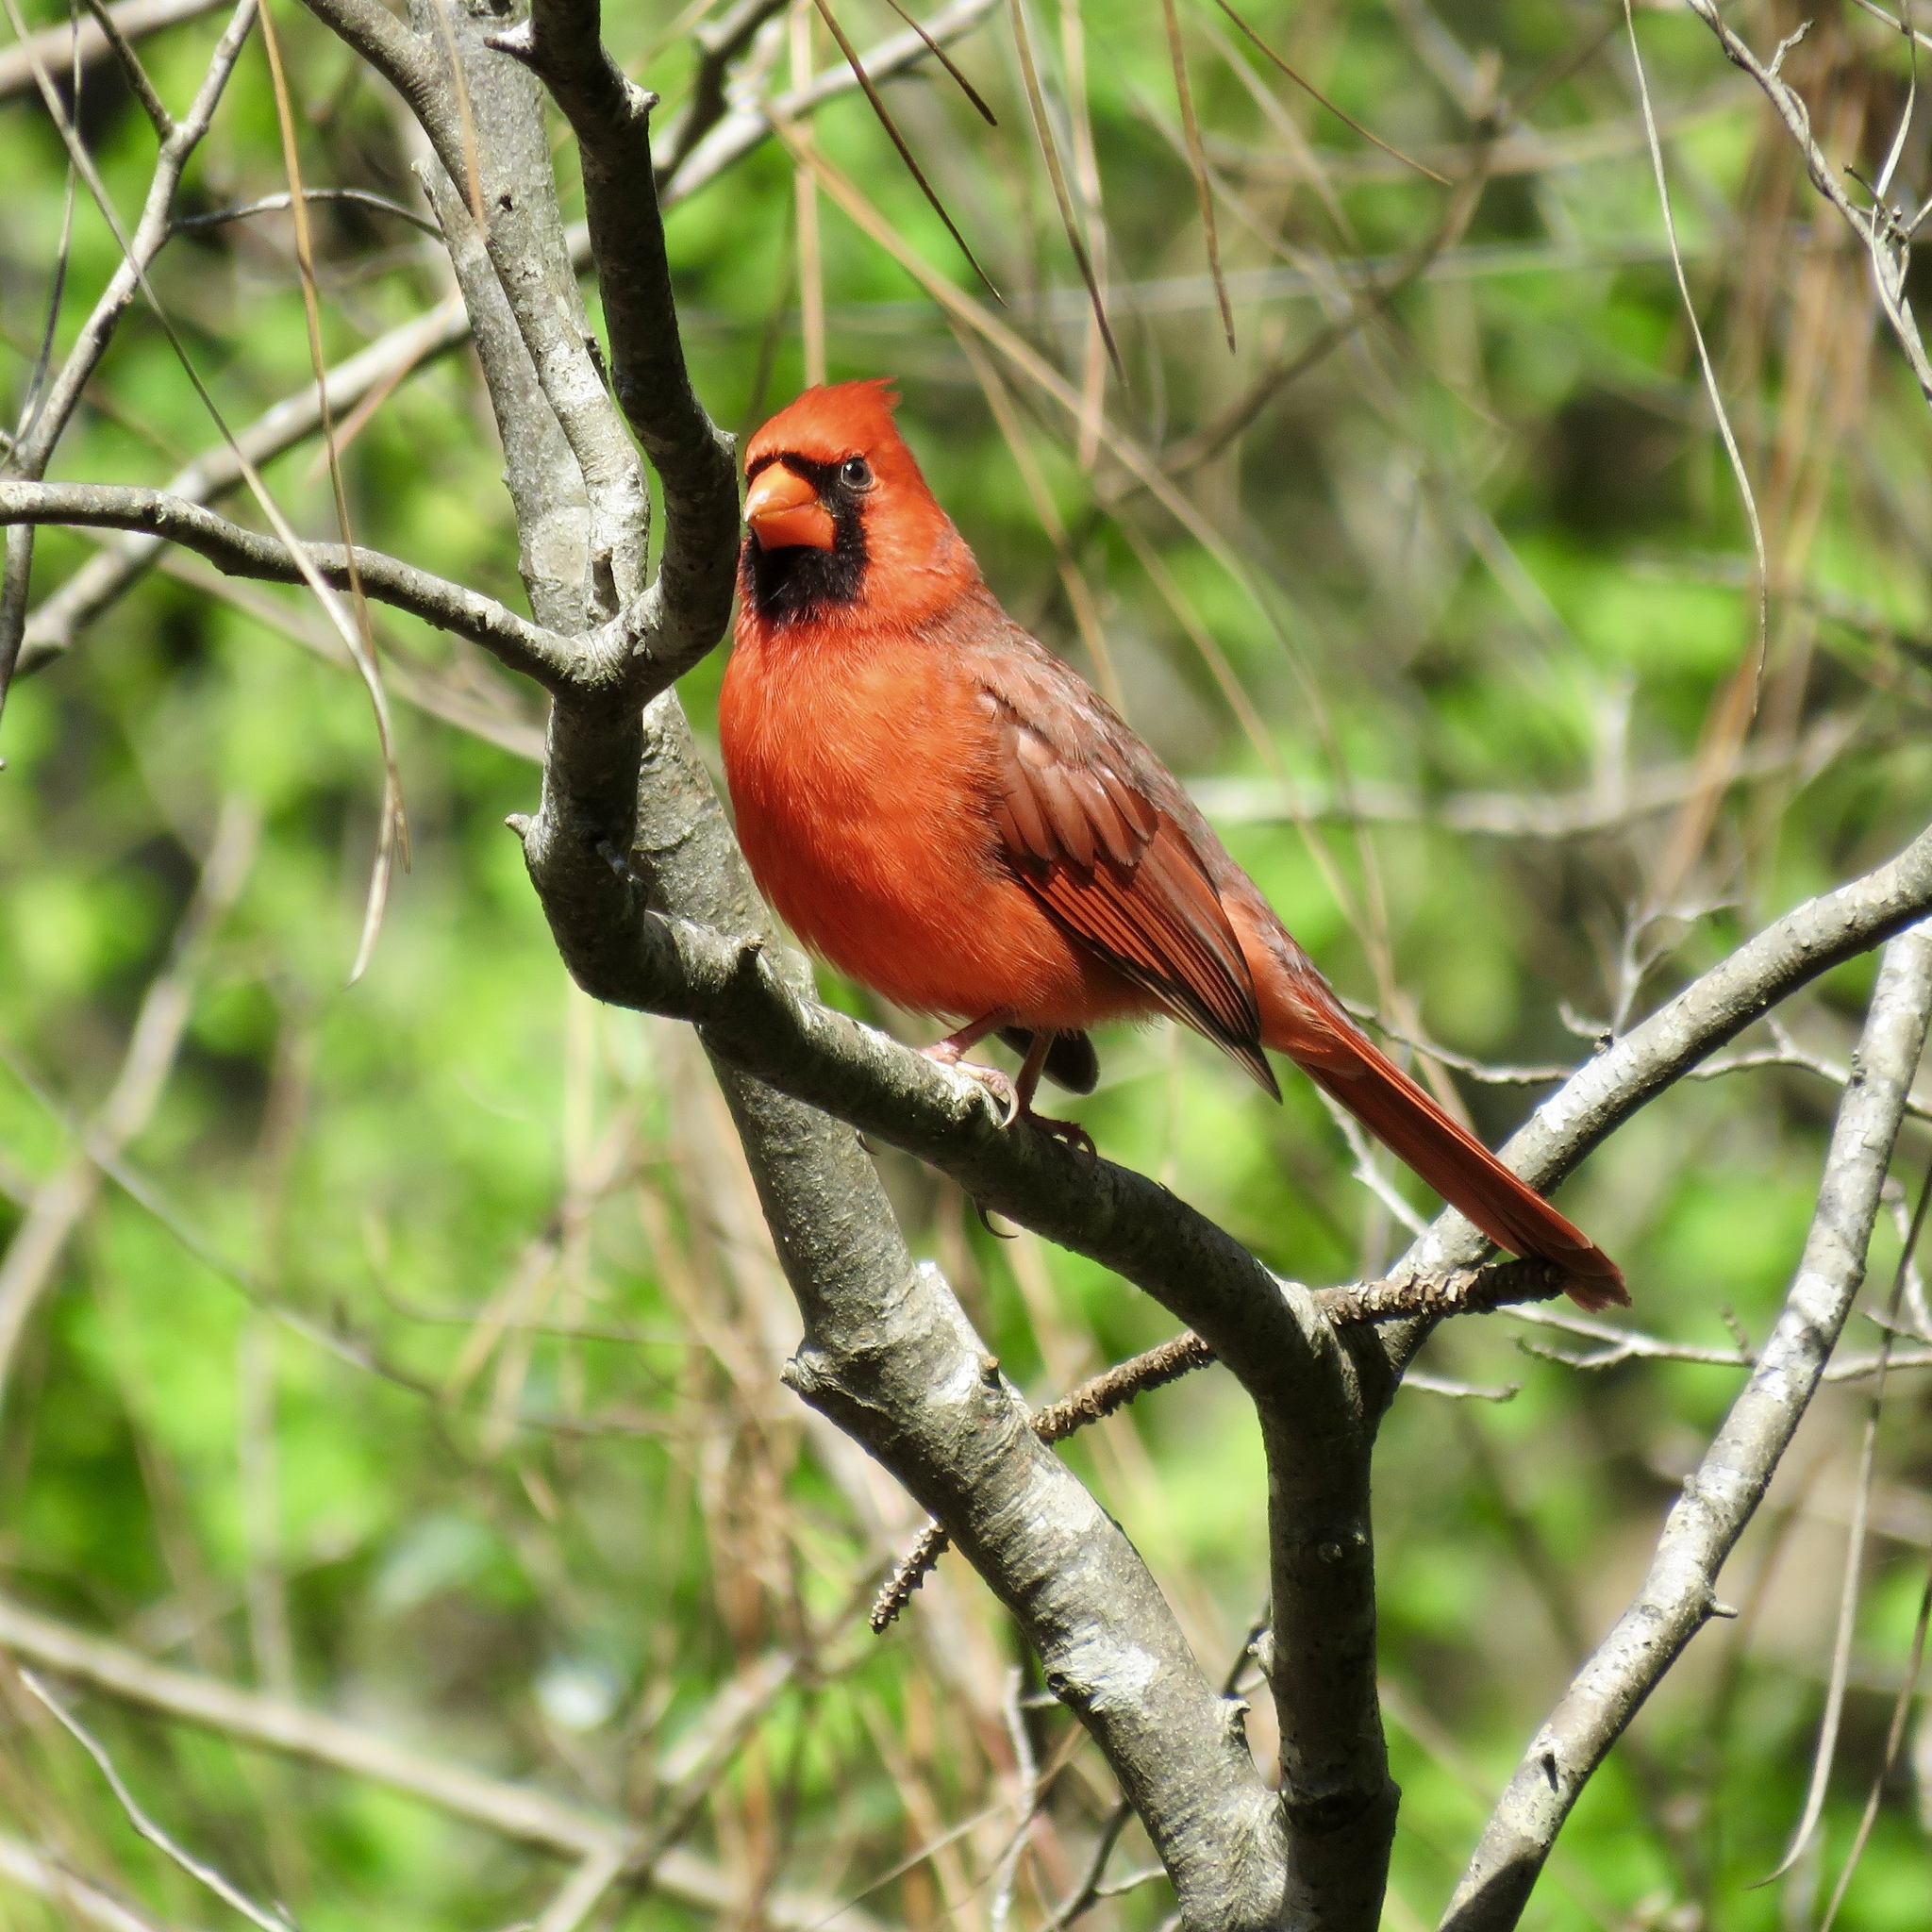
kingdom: Animalia
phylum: Chordata
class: Aves
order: Passeriformes
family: Cardinalidae
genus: Cardinalis
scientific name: Cardinalis cardinalis
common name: Northern cardinal
